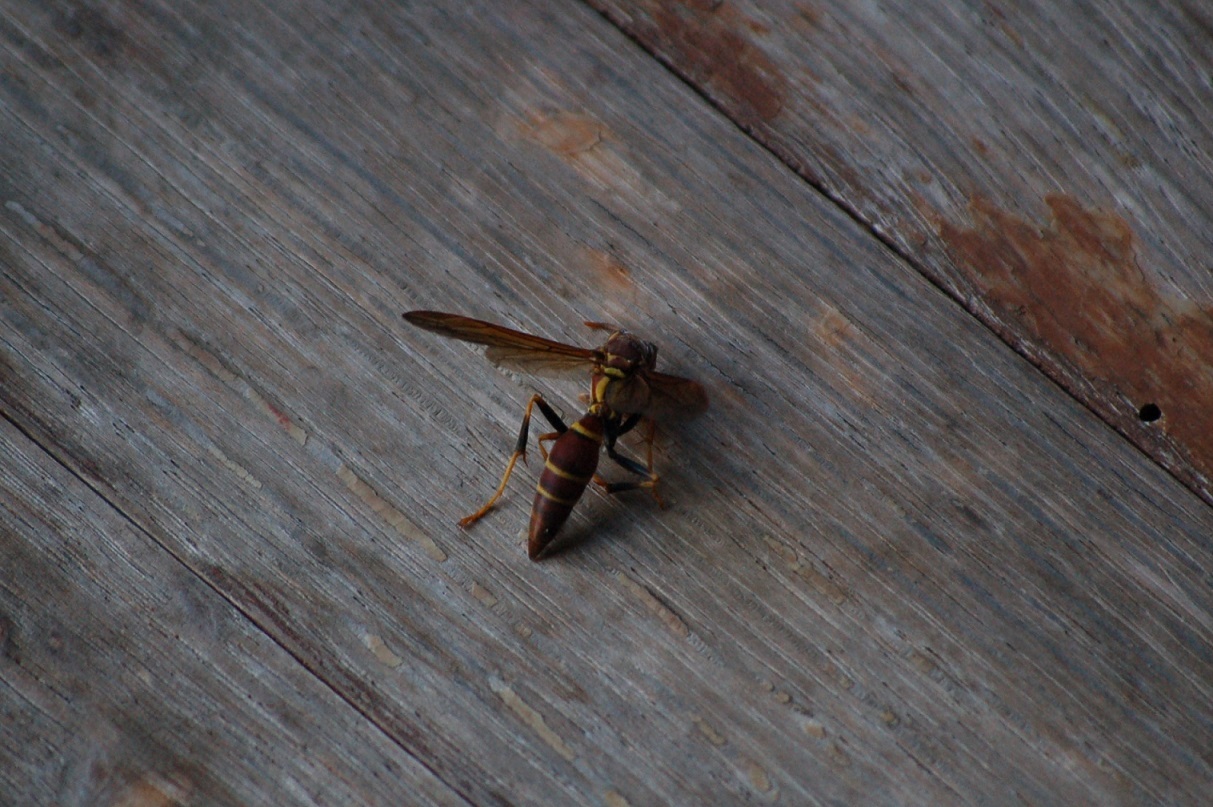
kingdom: Animalia
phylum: Arthropoda
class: Insecta
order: Hymenoptera
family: Eumenidae
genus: Polistes
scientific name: Polistes instabilis
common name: Unstable paper wasp
